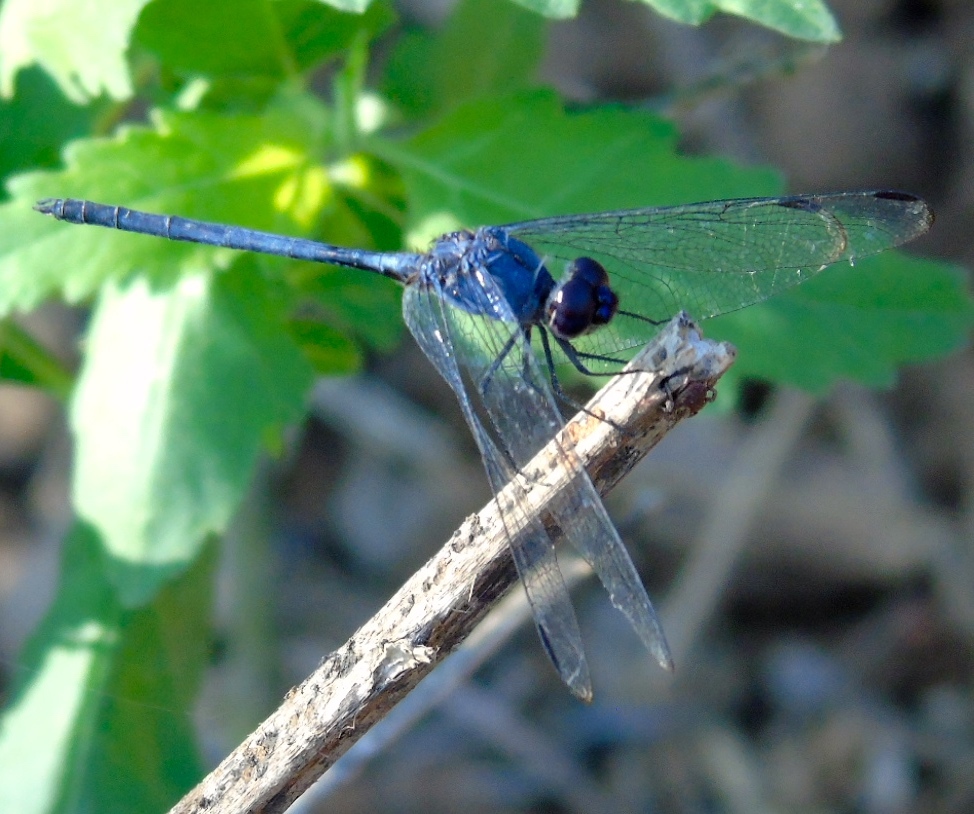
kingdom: Animalia
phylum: Arthropoda
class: Insecta
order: Odonata
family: Libellulidae
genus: Dythemis
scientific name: Dythemis nigrescens
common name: Black setwing
